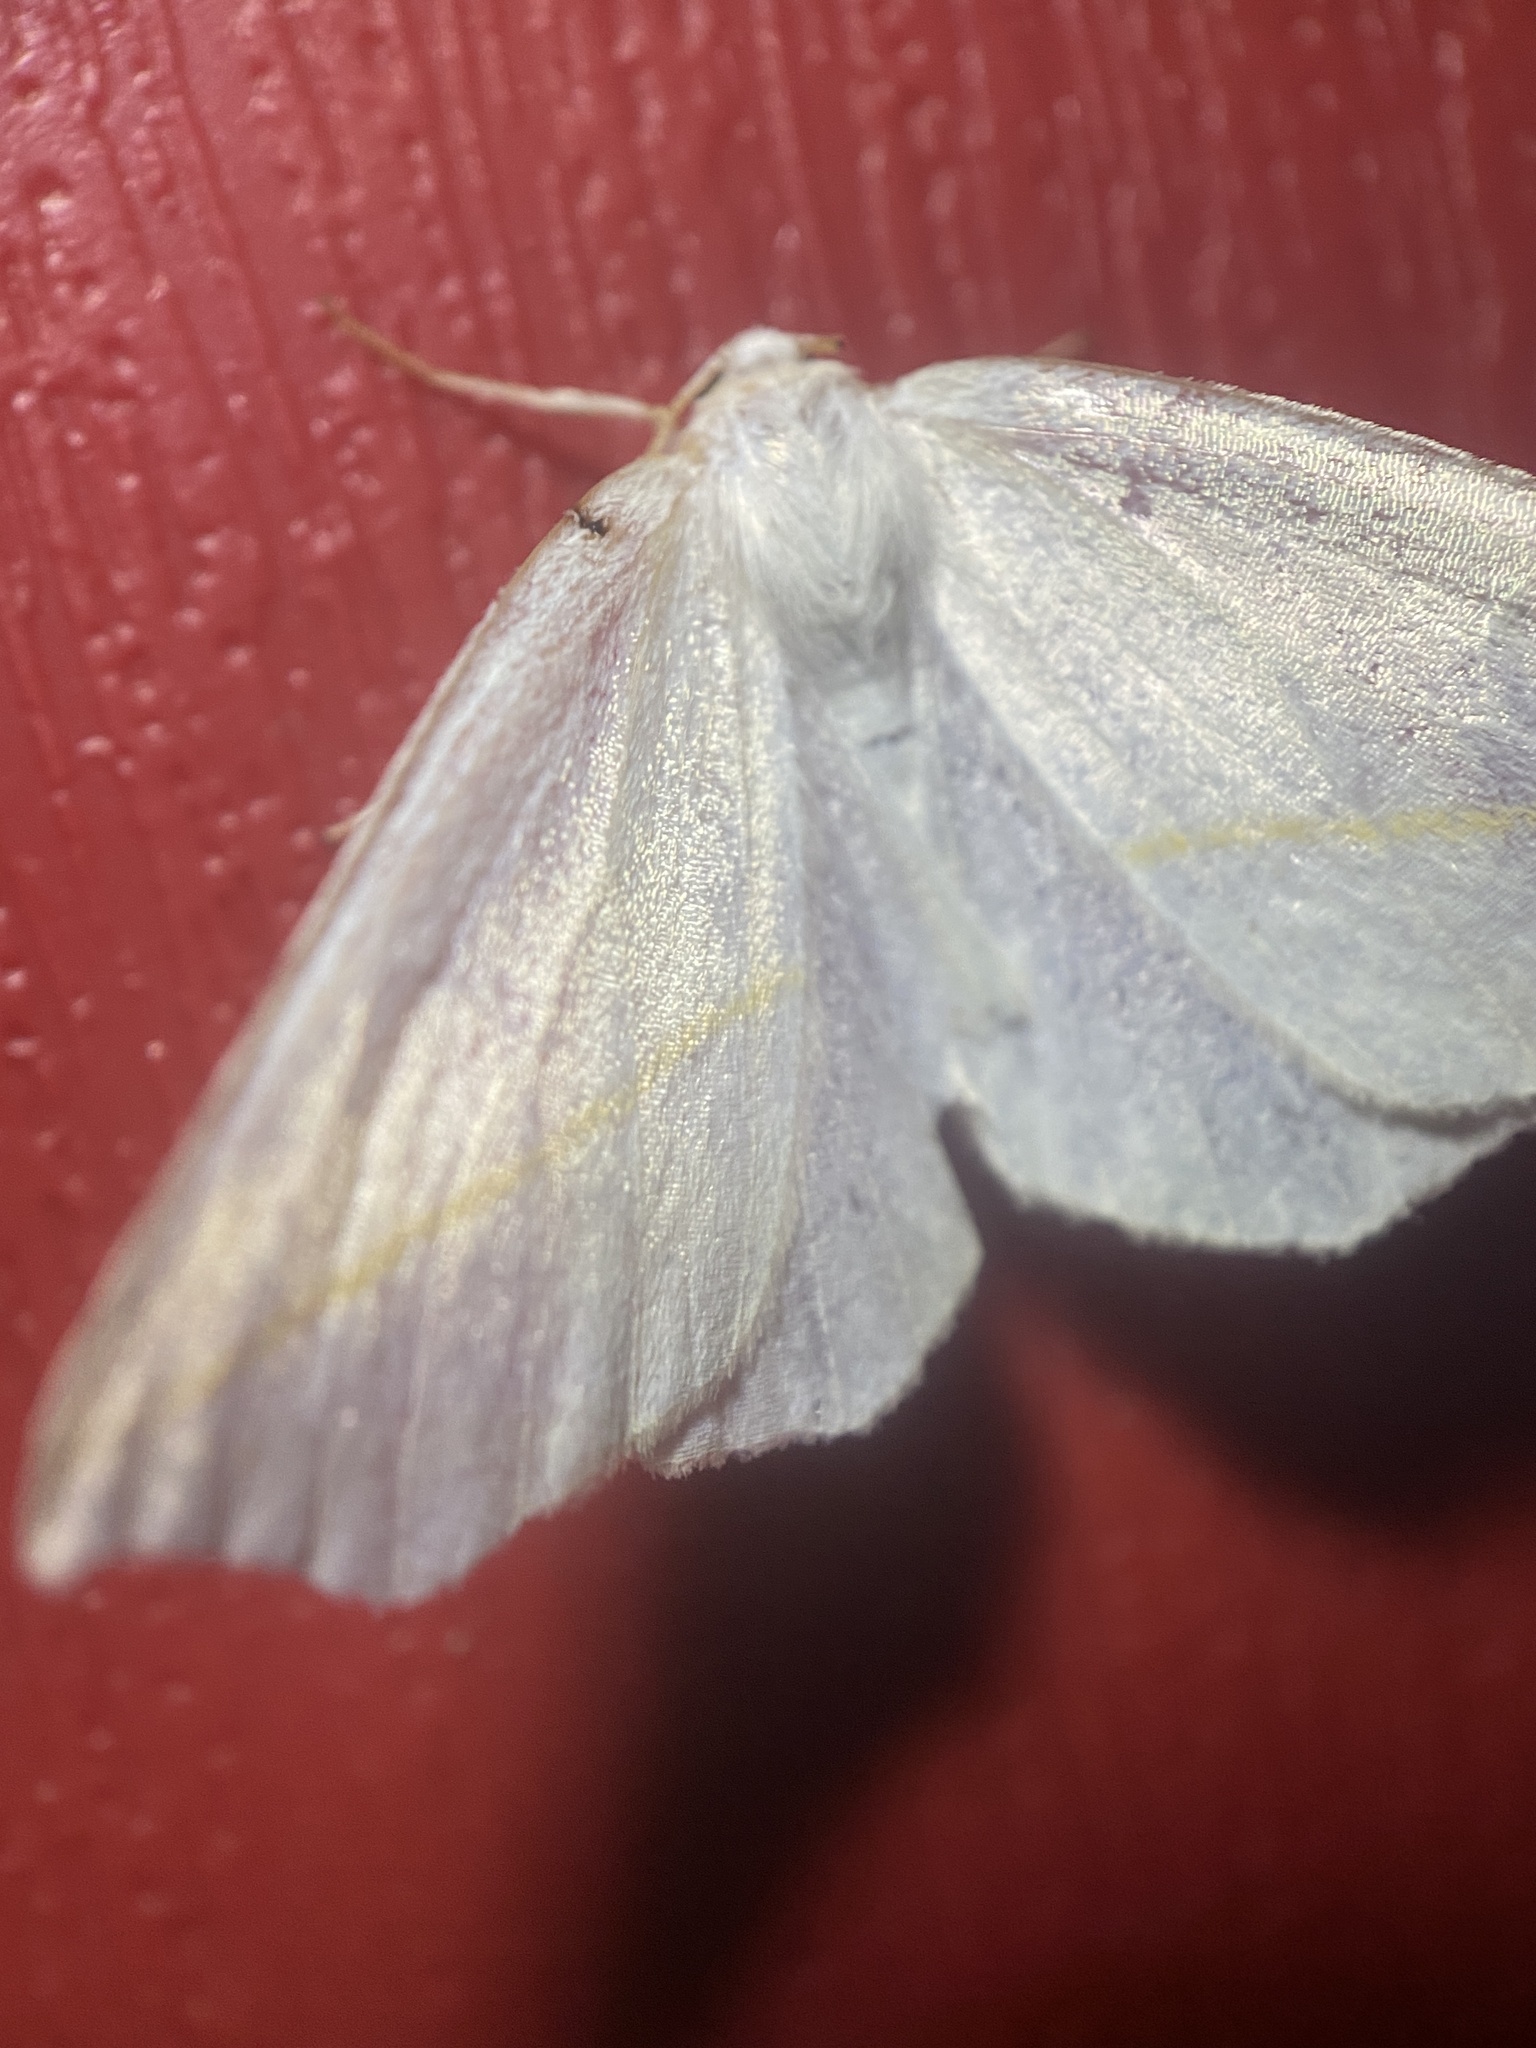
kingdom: Animalia
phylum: Arthropoda
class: Insecta
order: Lepidoptera
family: Geometridae
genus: Tetracis
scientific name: Tetracis cachexiata
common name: White slant-line
